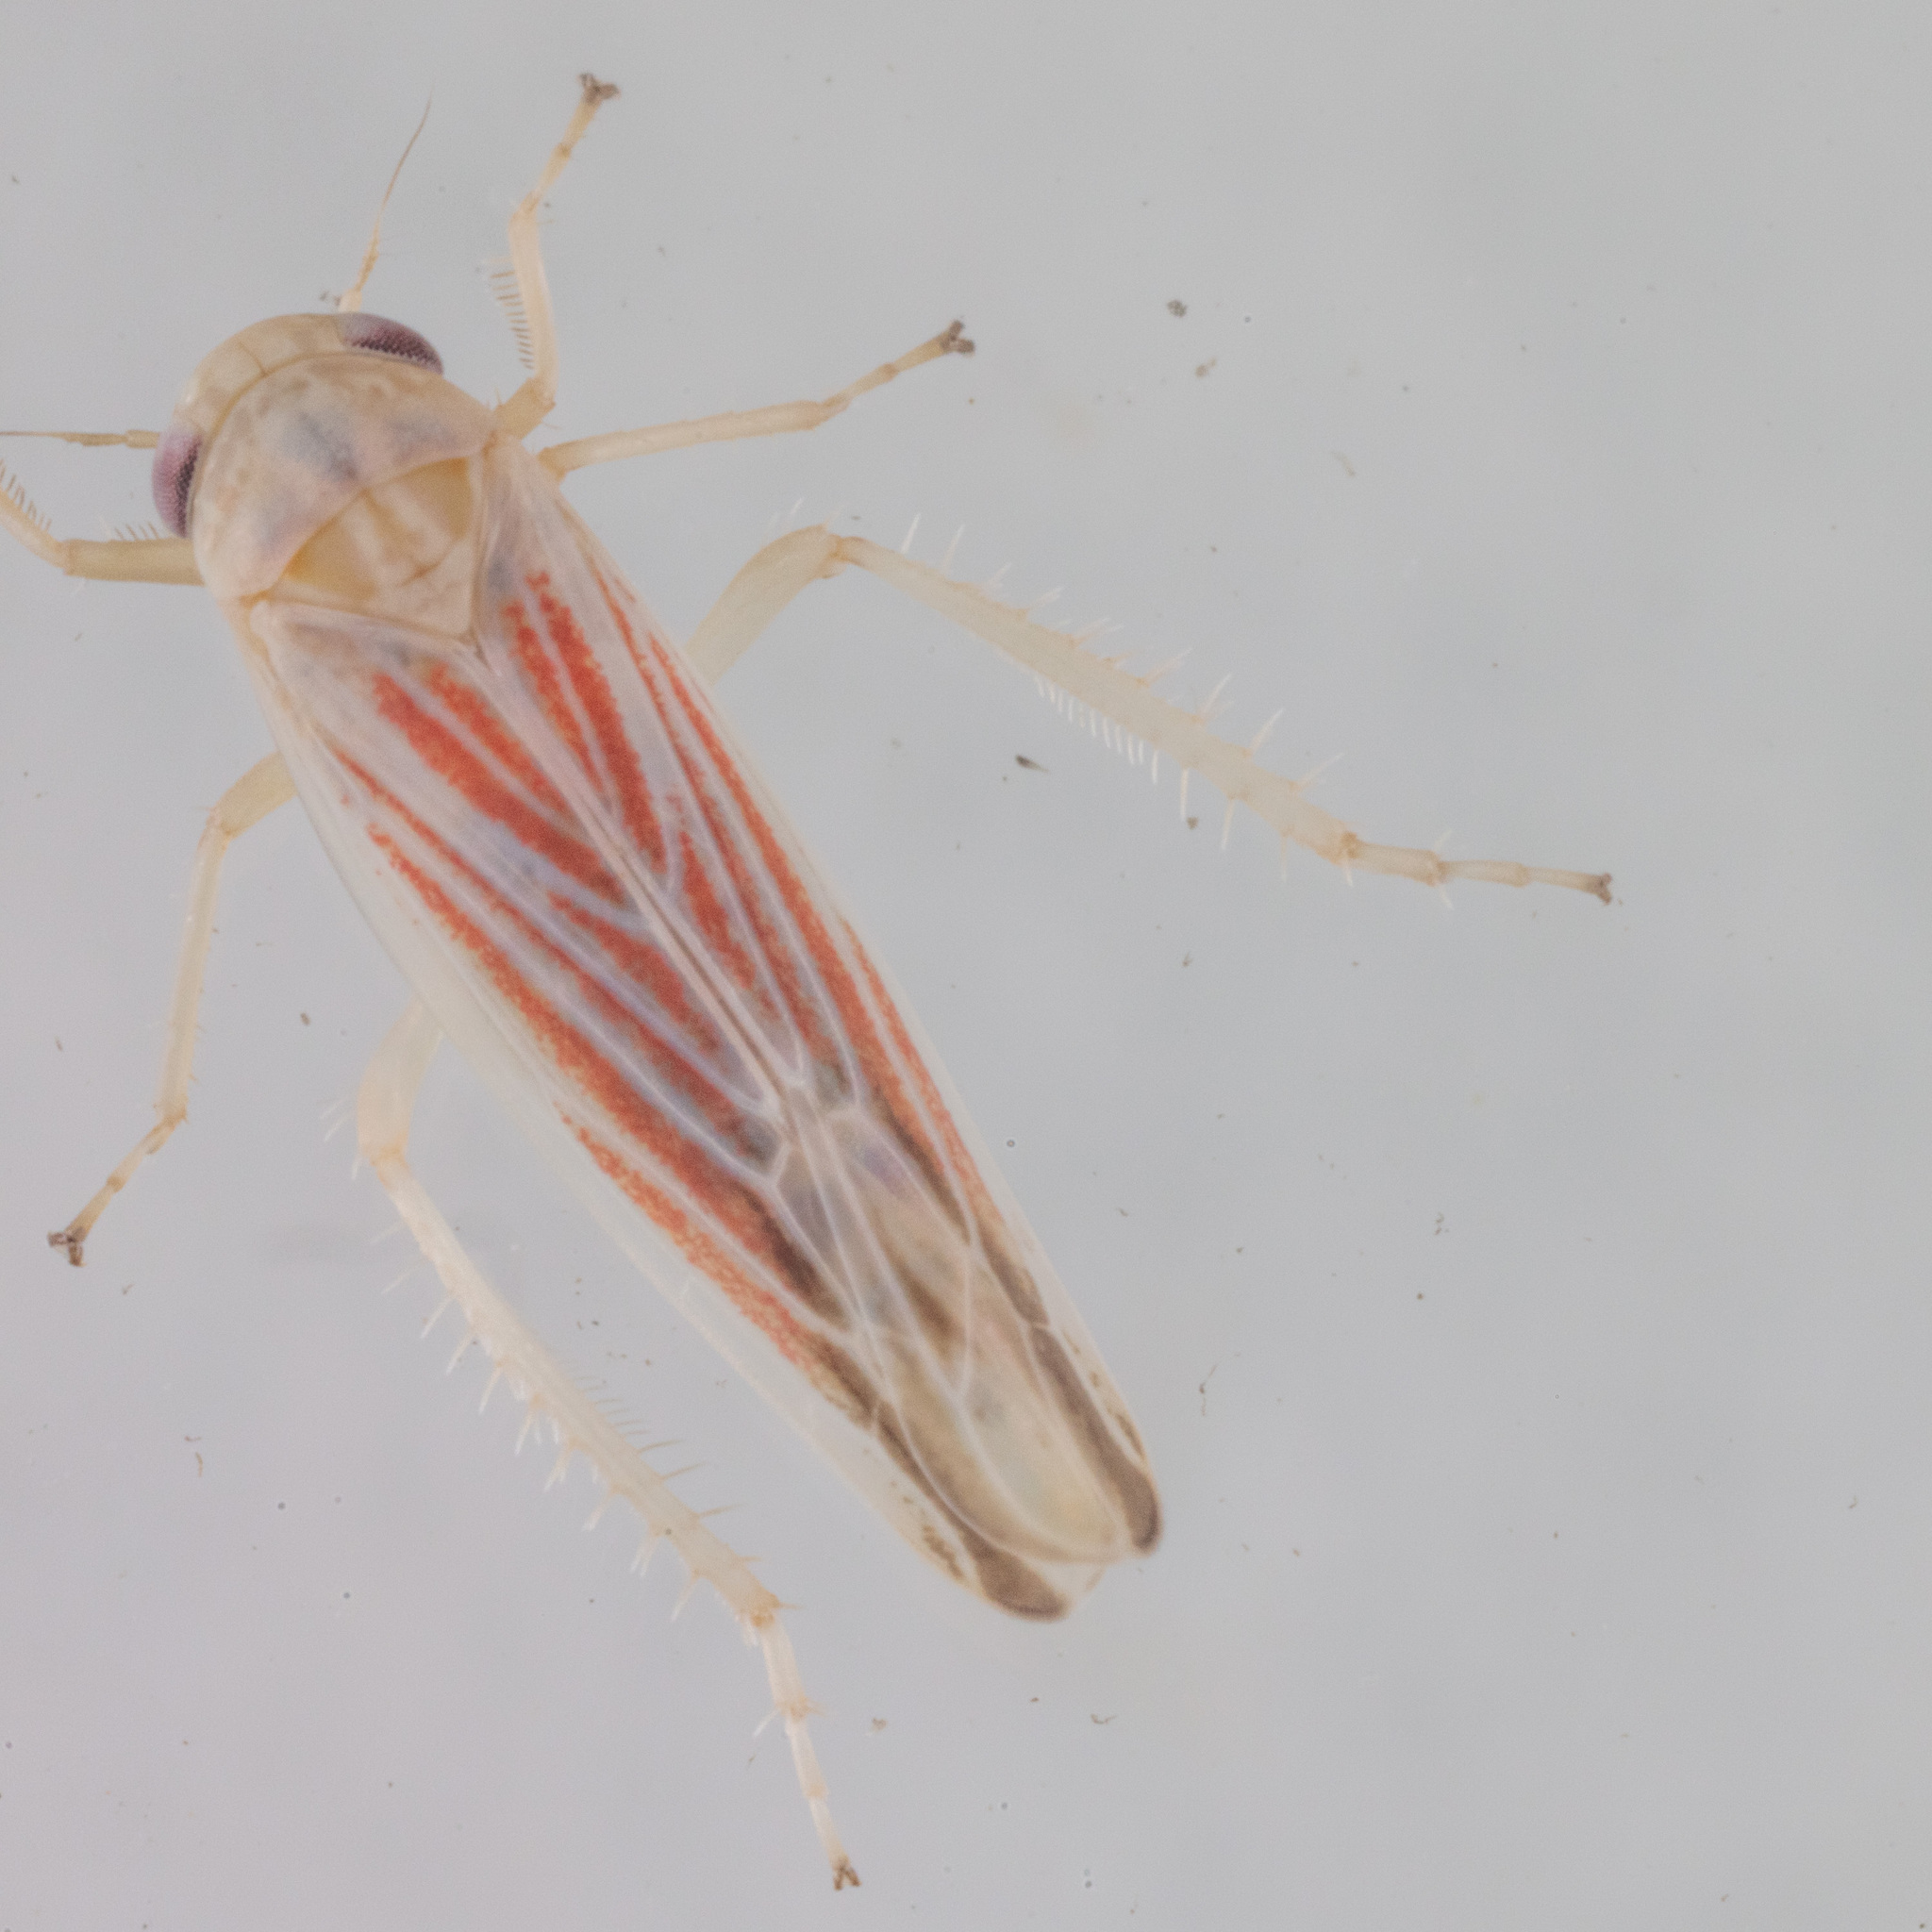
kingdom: Animalia
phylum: Arthropoda
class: Insecta
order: Hemiptera
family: Cicadellidae
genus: Balclutha
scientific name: Balclutha rubrostriata
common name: Red-streaked leafhopper
